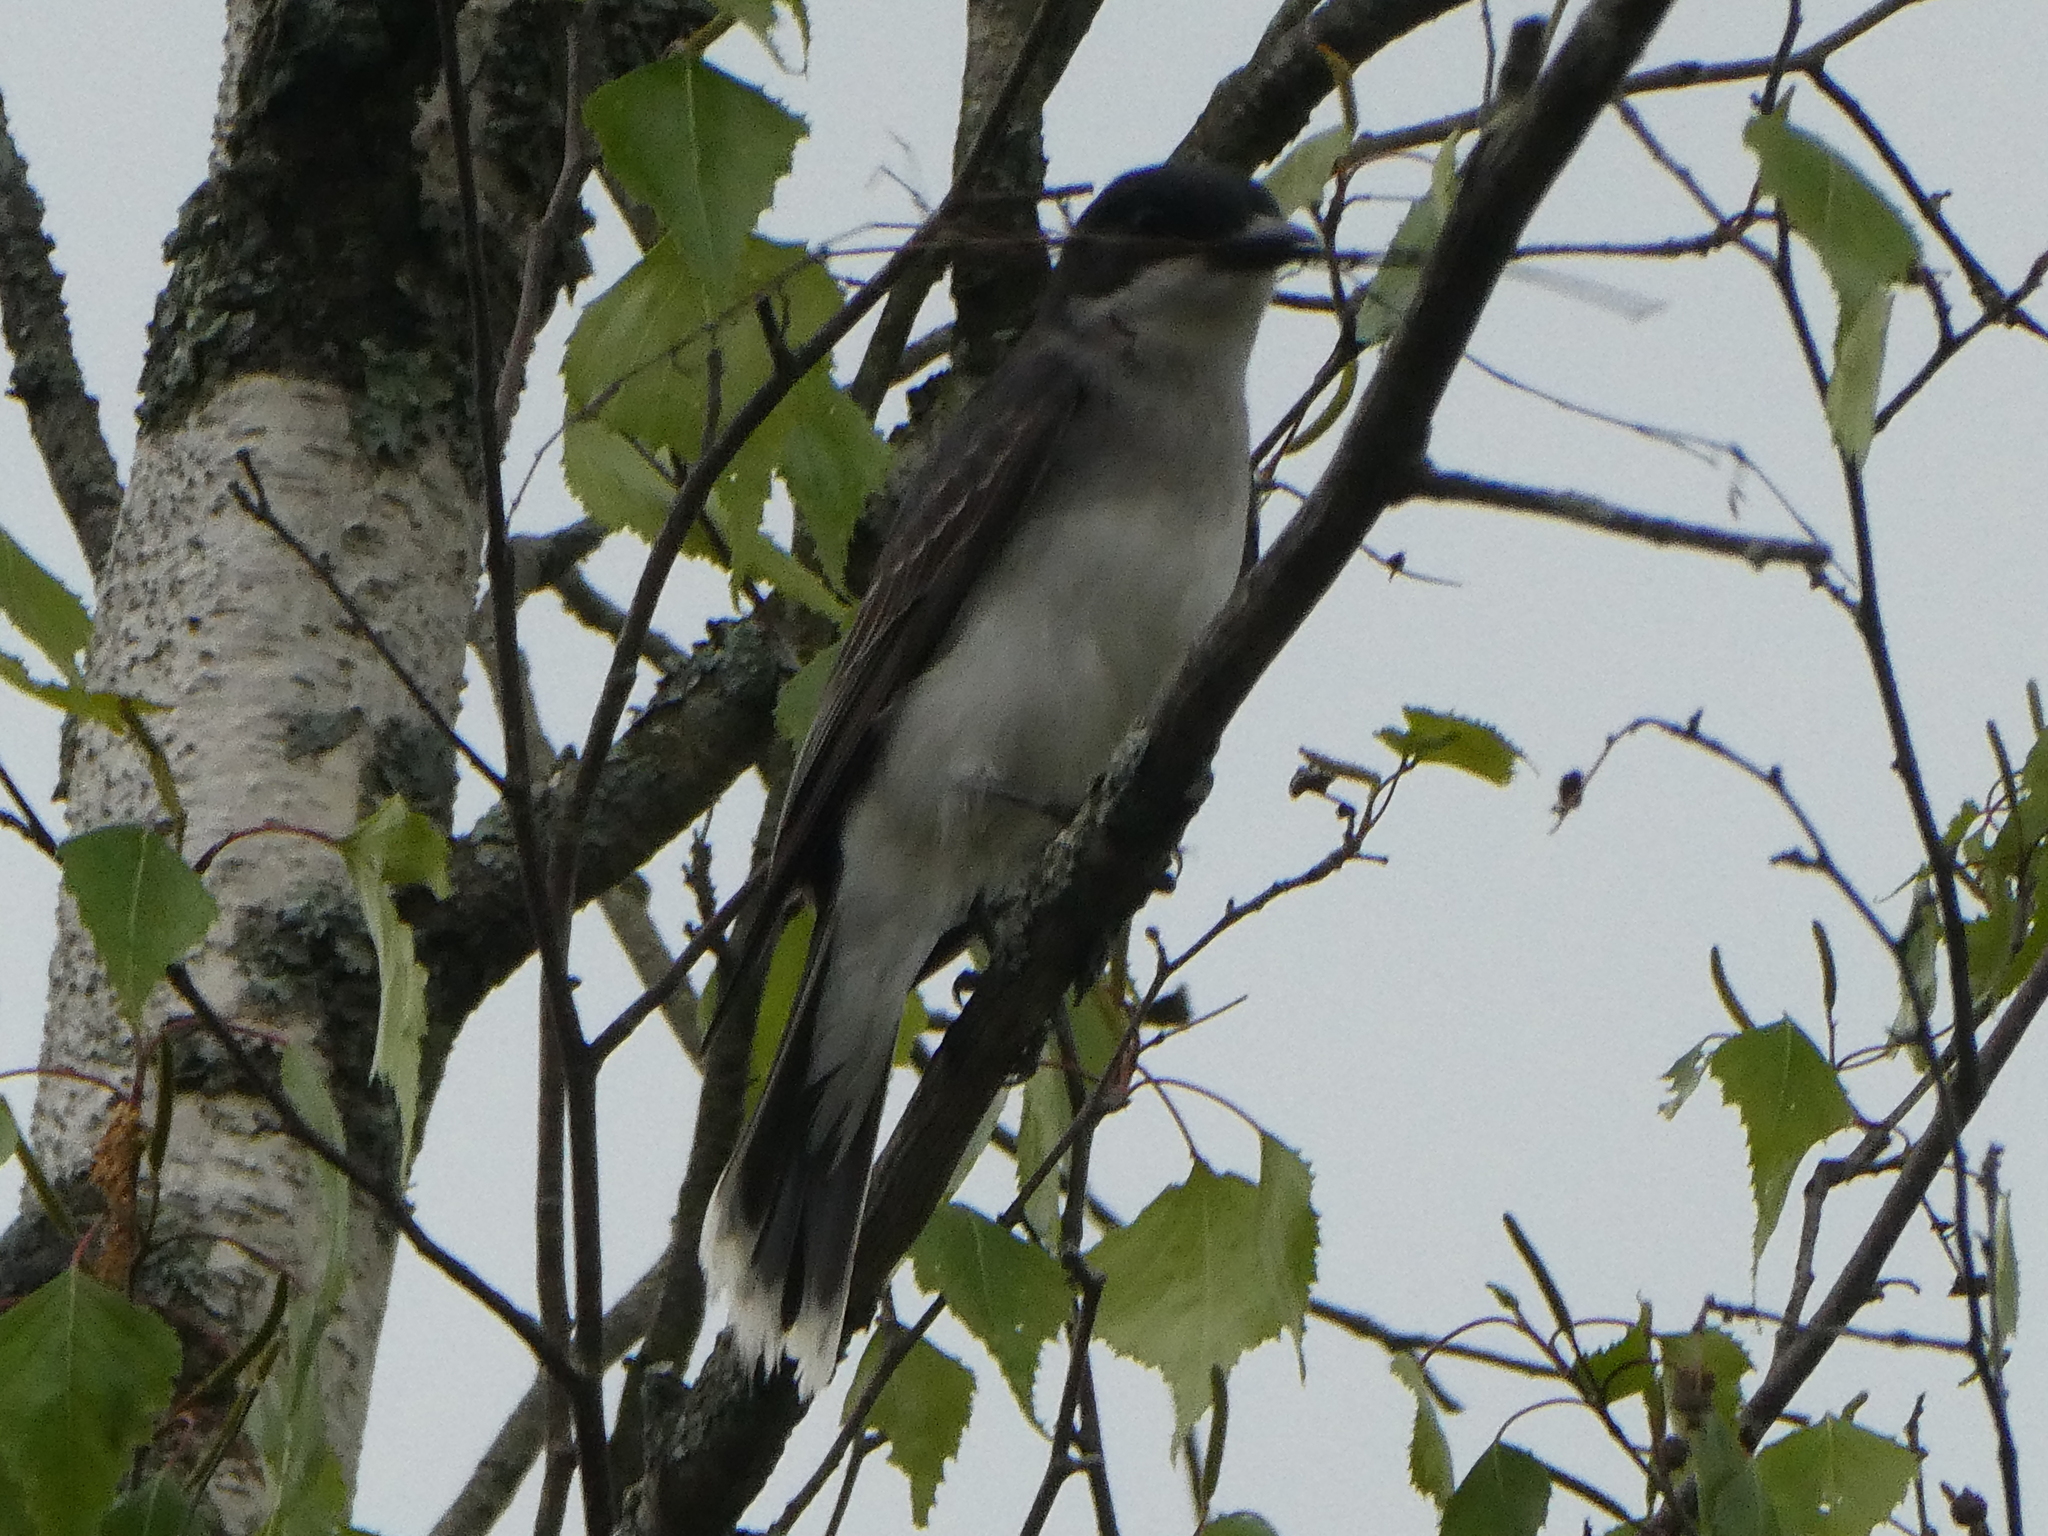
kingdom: Animalia
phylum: Chordata
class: Aves
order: Passeriformes
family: Tyrannidae
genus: Tyrannus
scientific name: Tyrannus tyrannus
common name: Eastern kingbird
